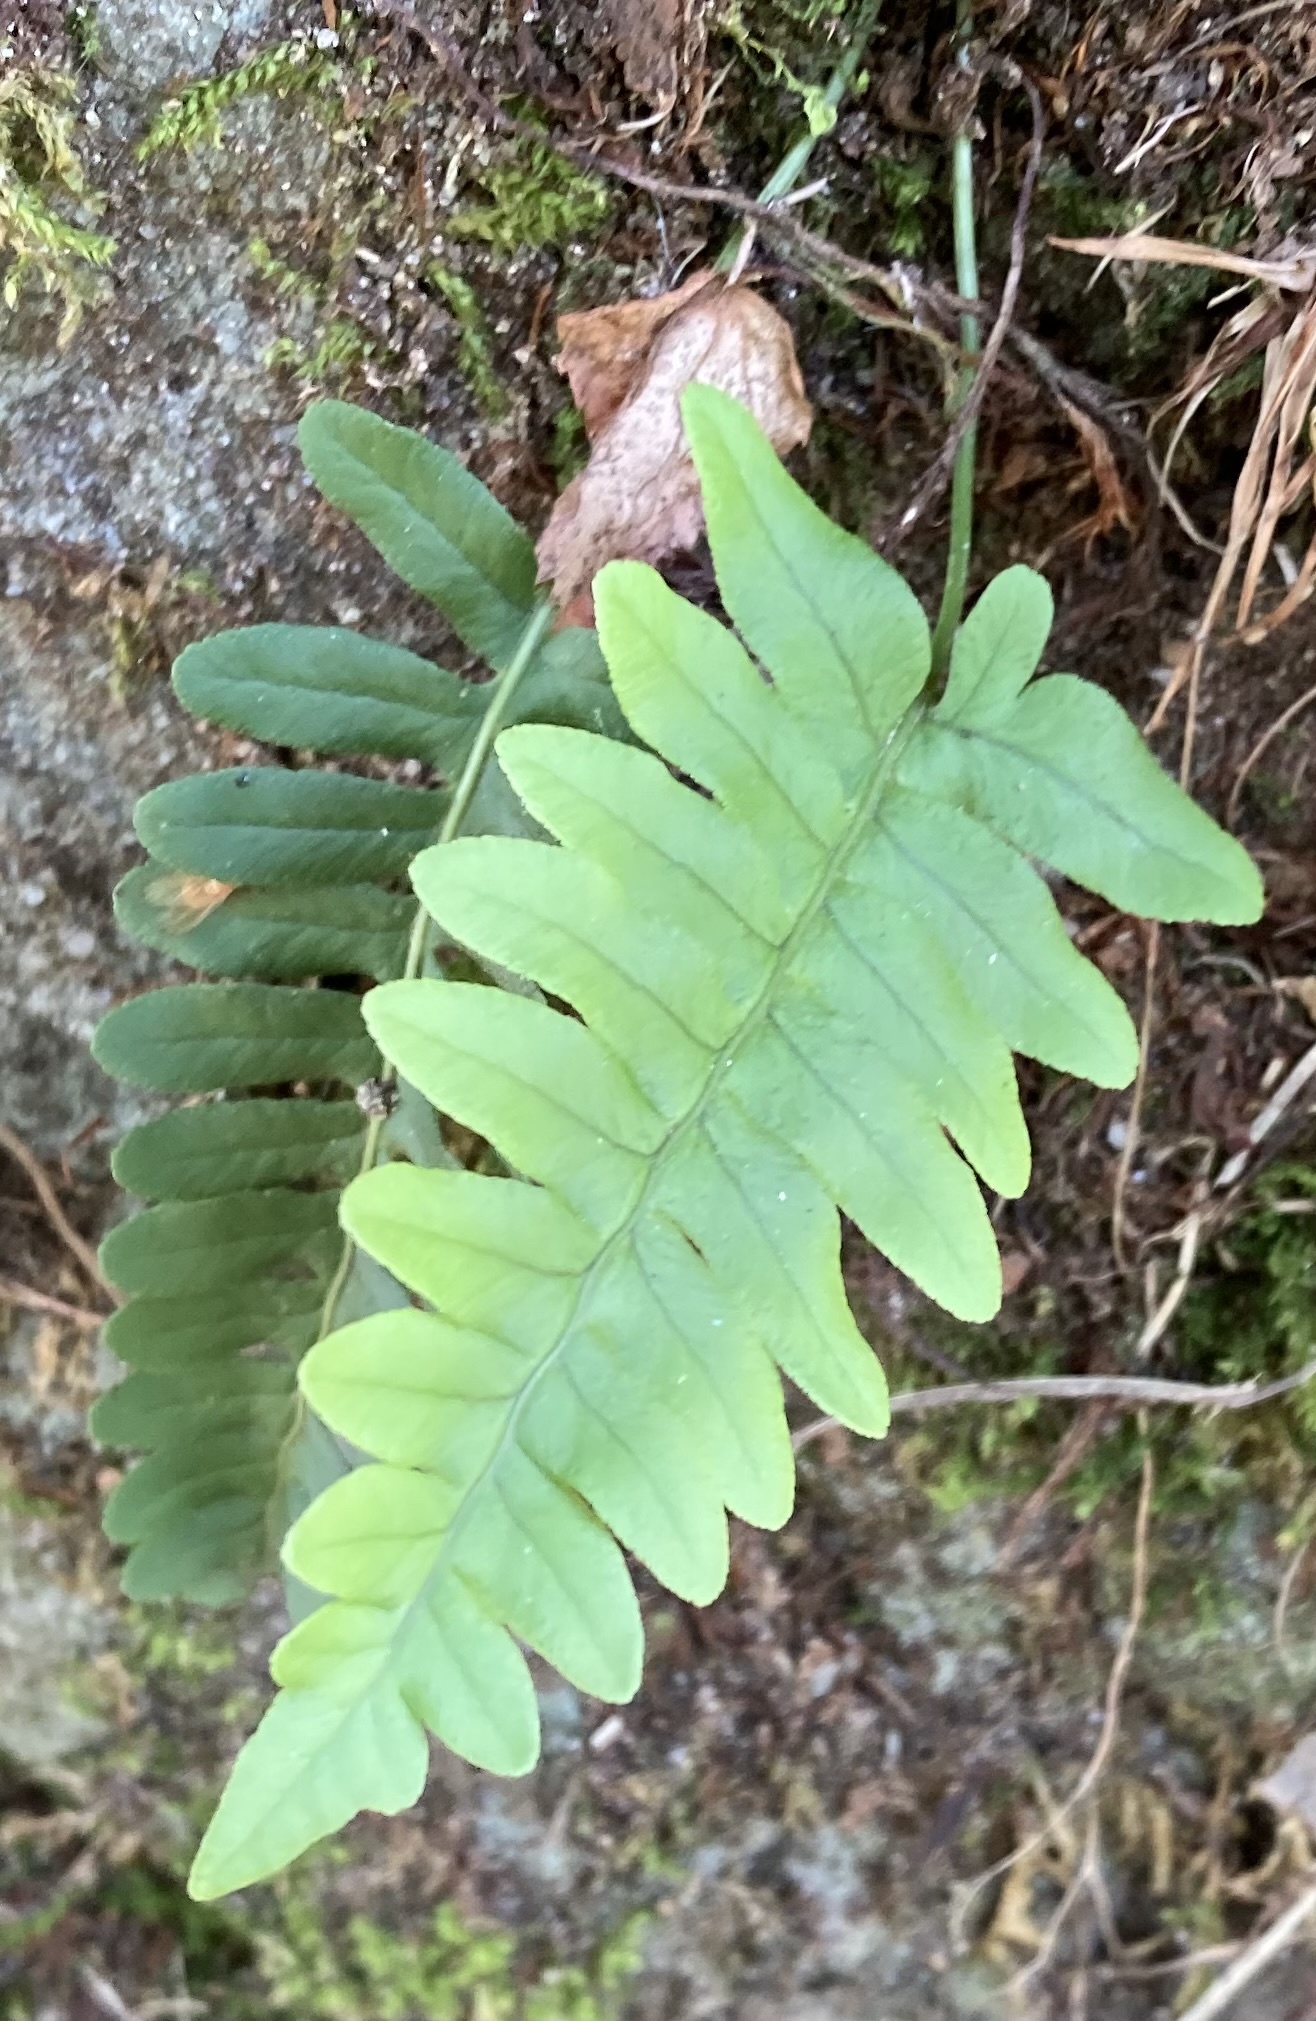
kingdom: Plantae
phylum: Tracheophyta
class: Polypodiopsida
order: Polypodiales
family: Polypodiaceae
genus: Polypodium
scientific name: Polypodium vulgare
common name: Common polypody
